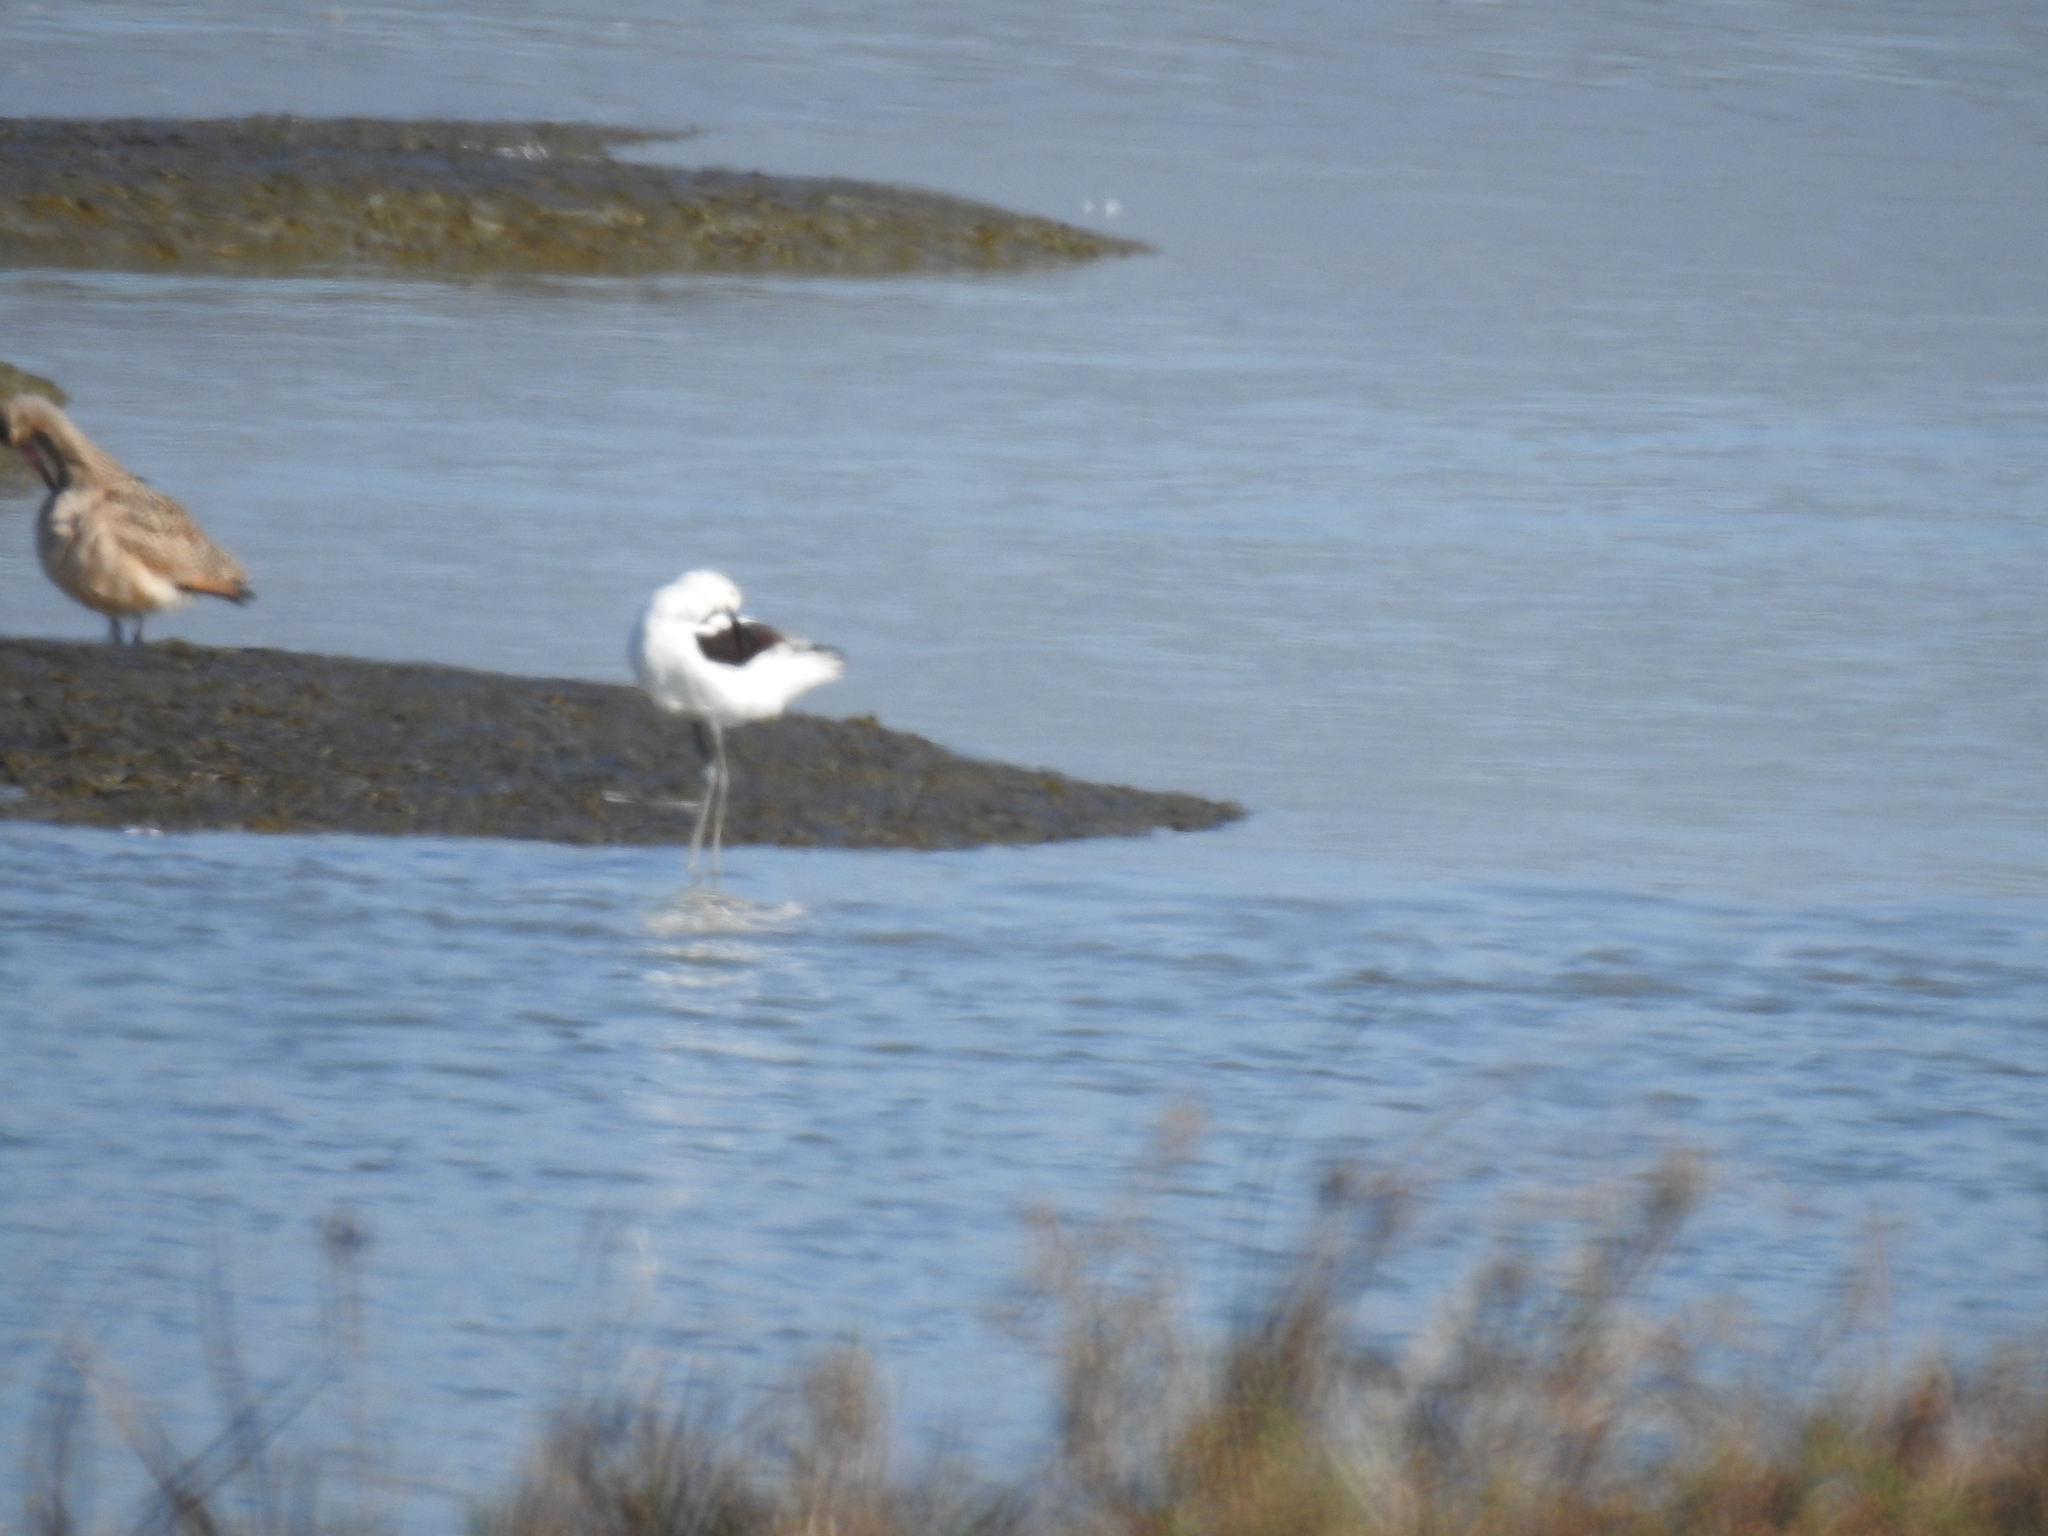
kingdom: Animalia
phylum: Chordata
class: Aves
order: Charadriiformes
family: Recurvirostridae
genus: Recurvirostra
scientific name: Recurvirostra americana
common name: American avocet
